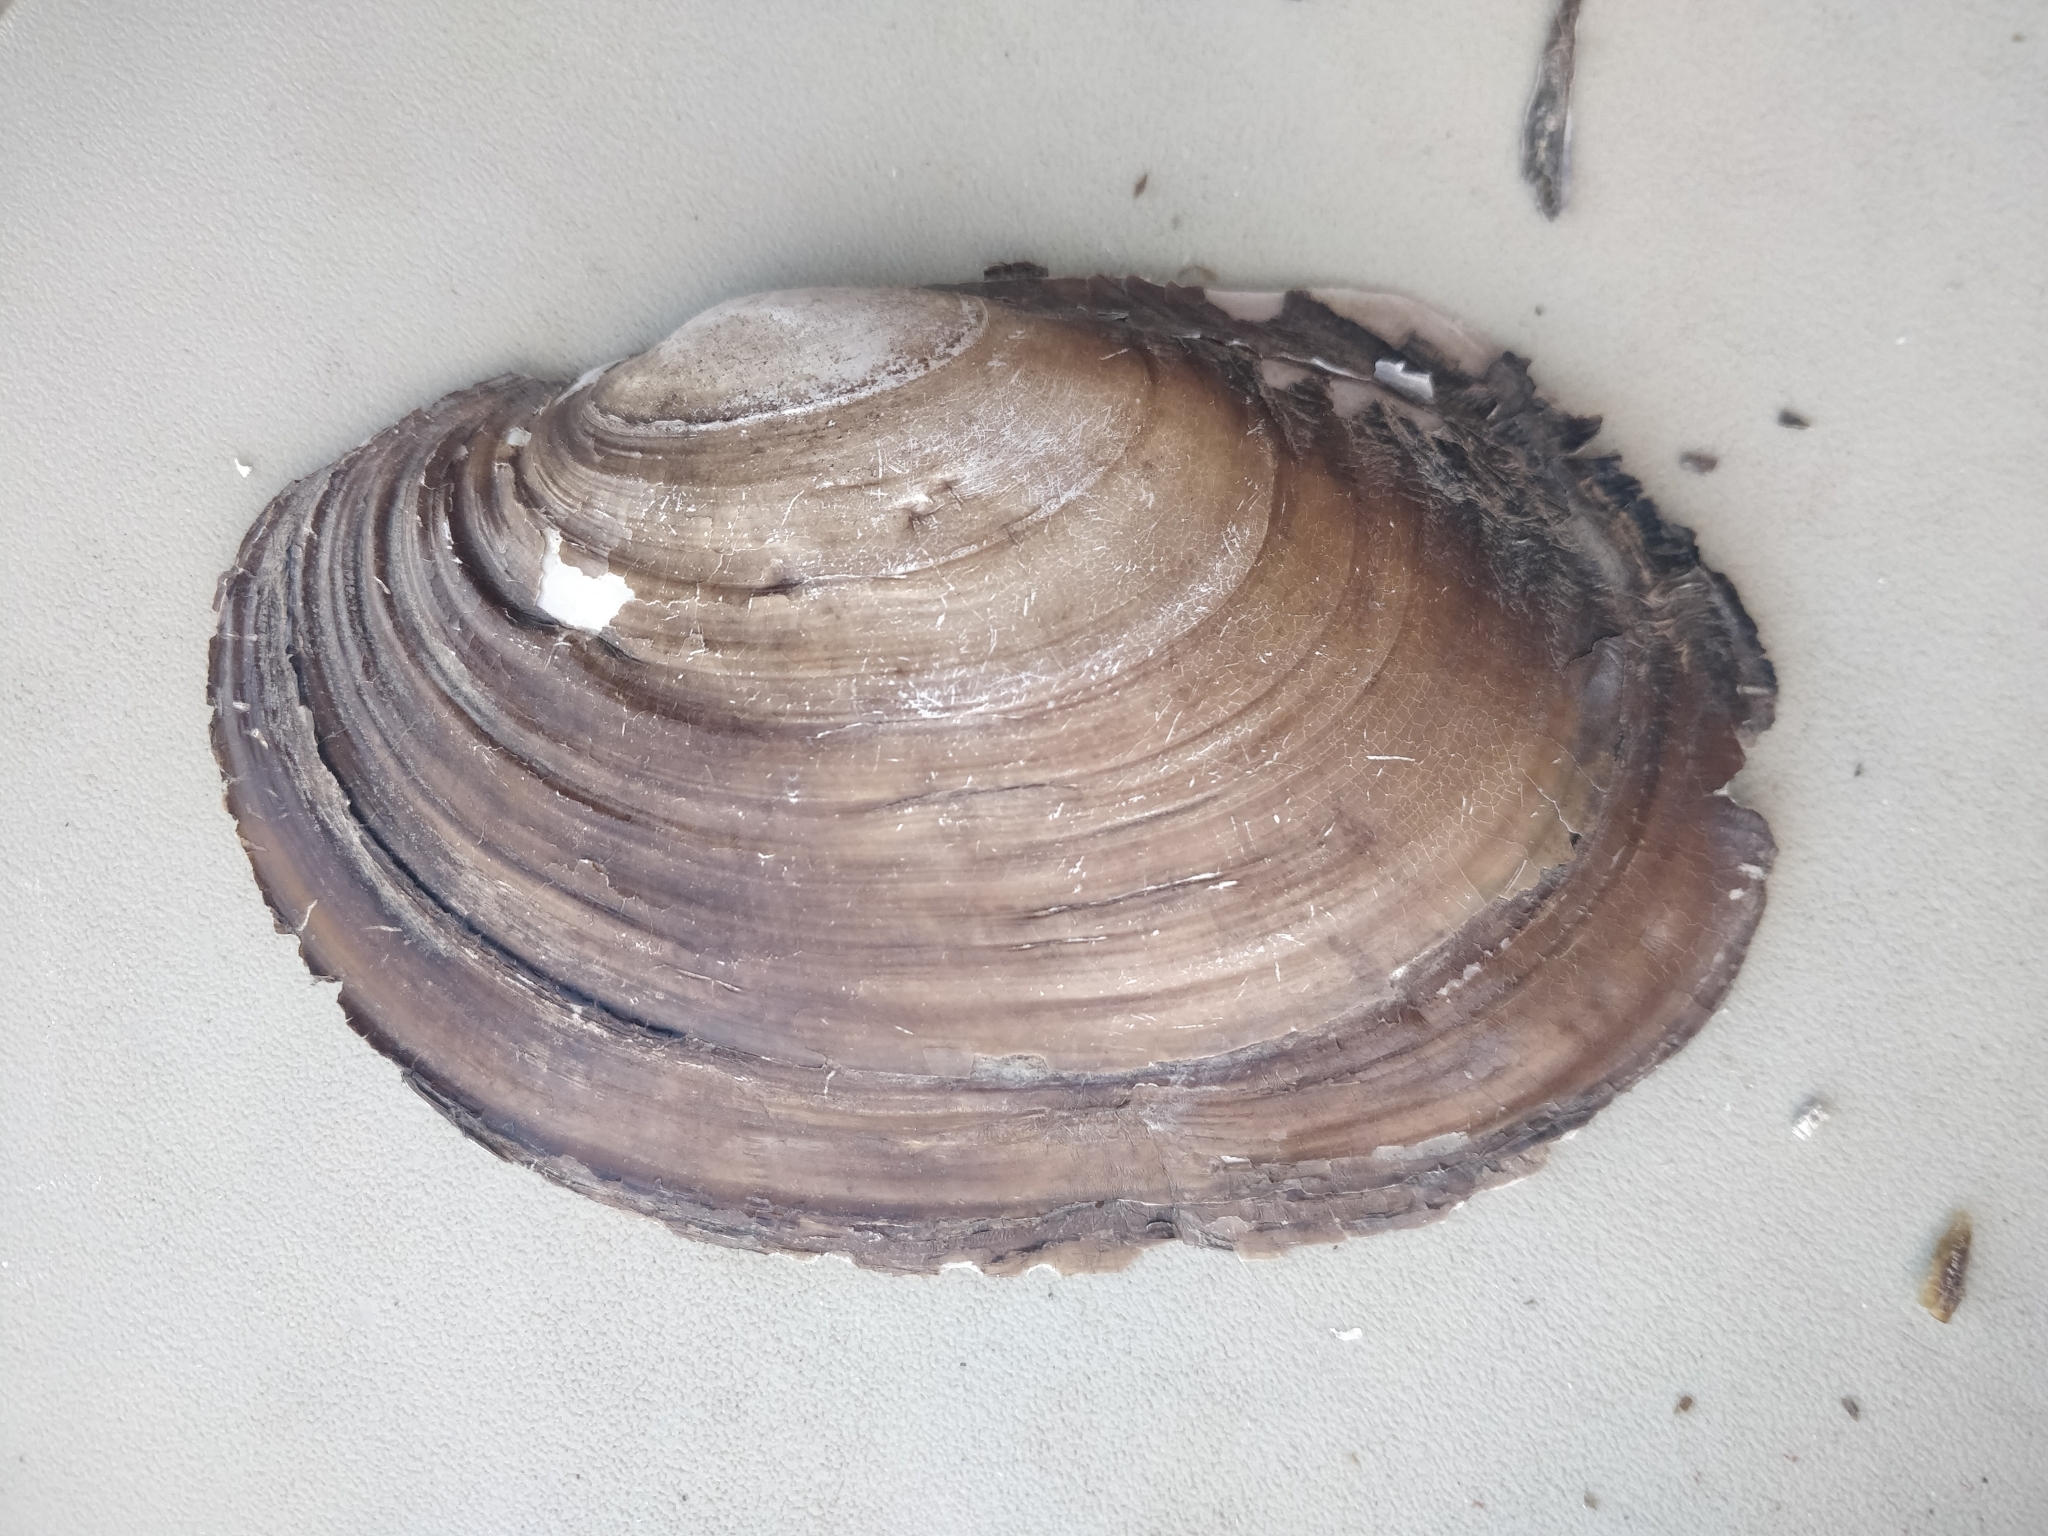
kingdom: Animalia
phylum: Mollusca
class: Bivalvia
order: Unionida
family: Unionidae
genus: Potamilus
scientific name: Potamilus ohiensis
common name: Pink papershell
